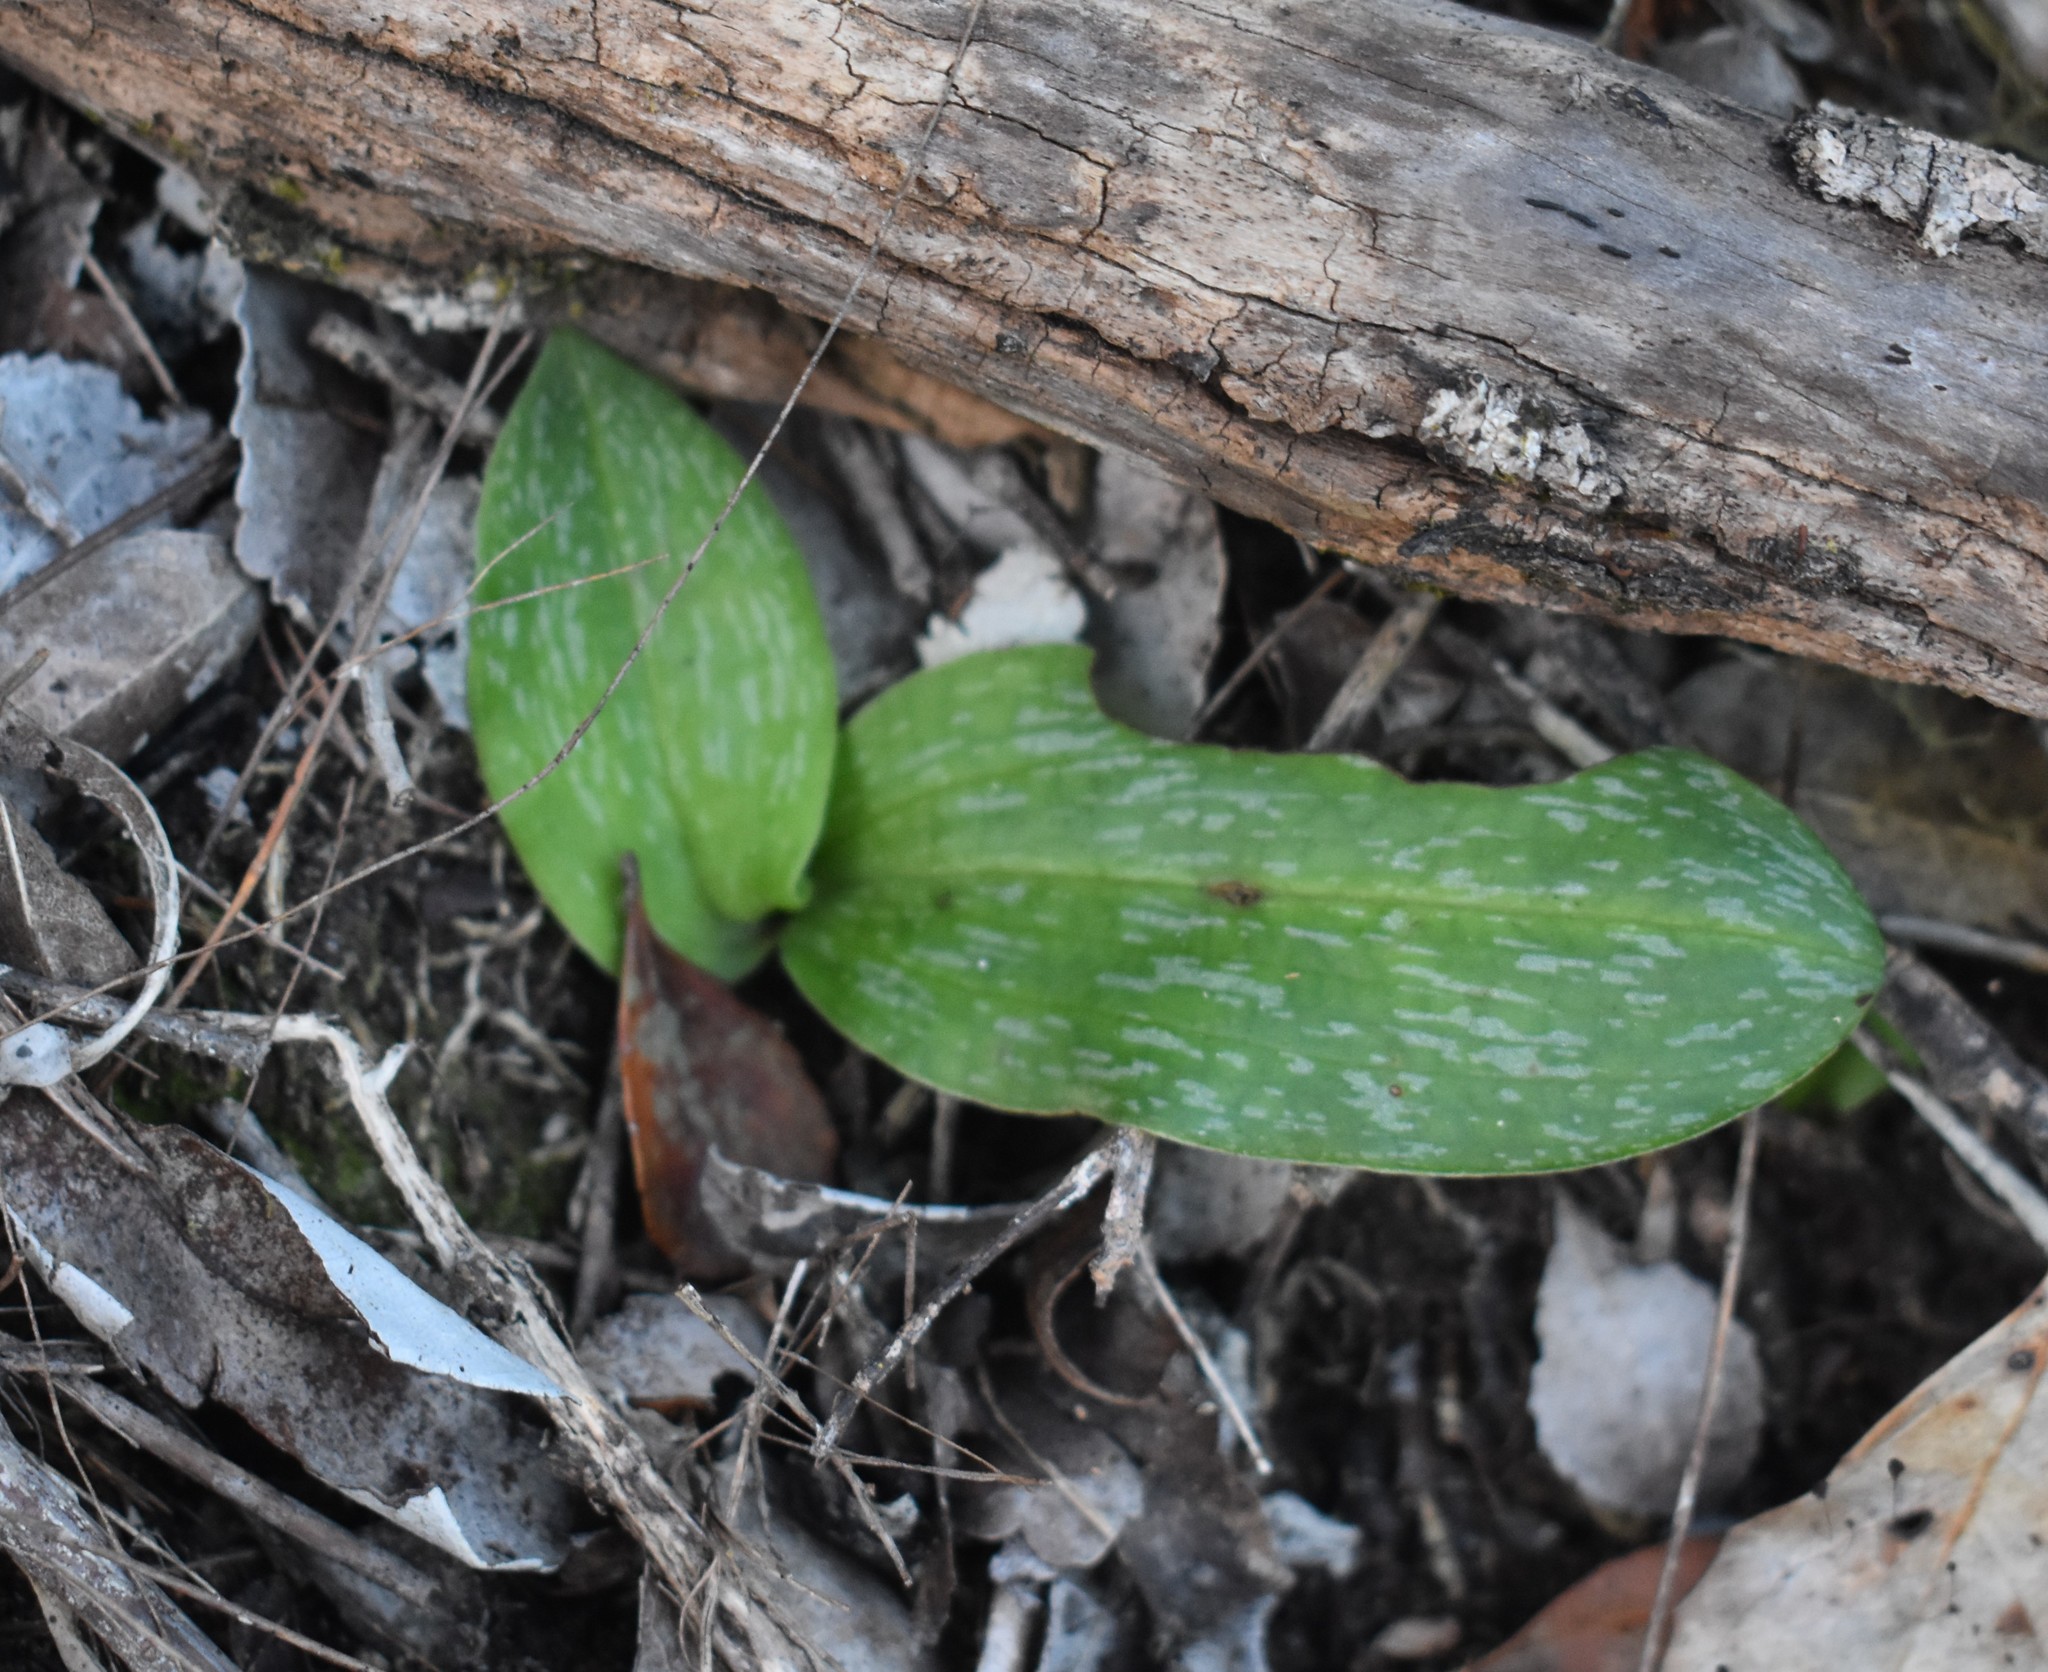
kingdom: Plantae
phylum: Tracheophyta
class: Liliopsida
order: Asparagales
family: Orchidaceae
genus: Habenaria
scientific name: Habenaria arenaria
